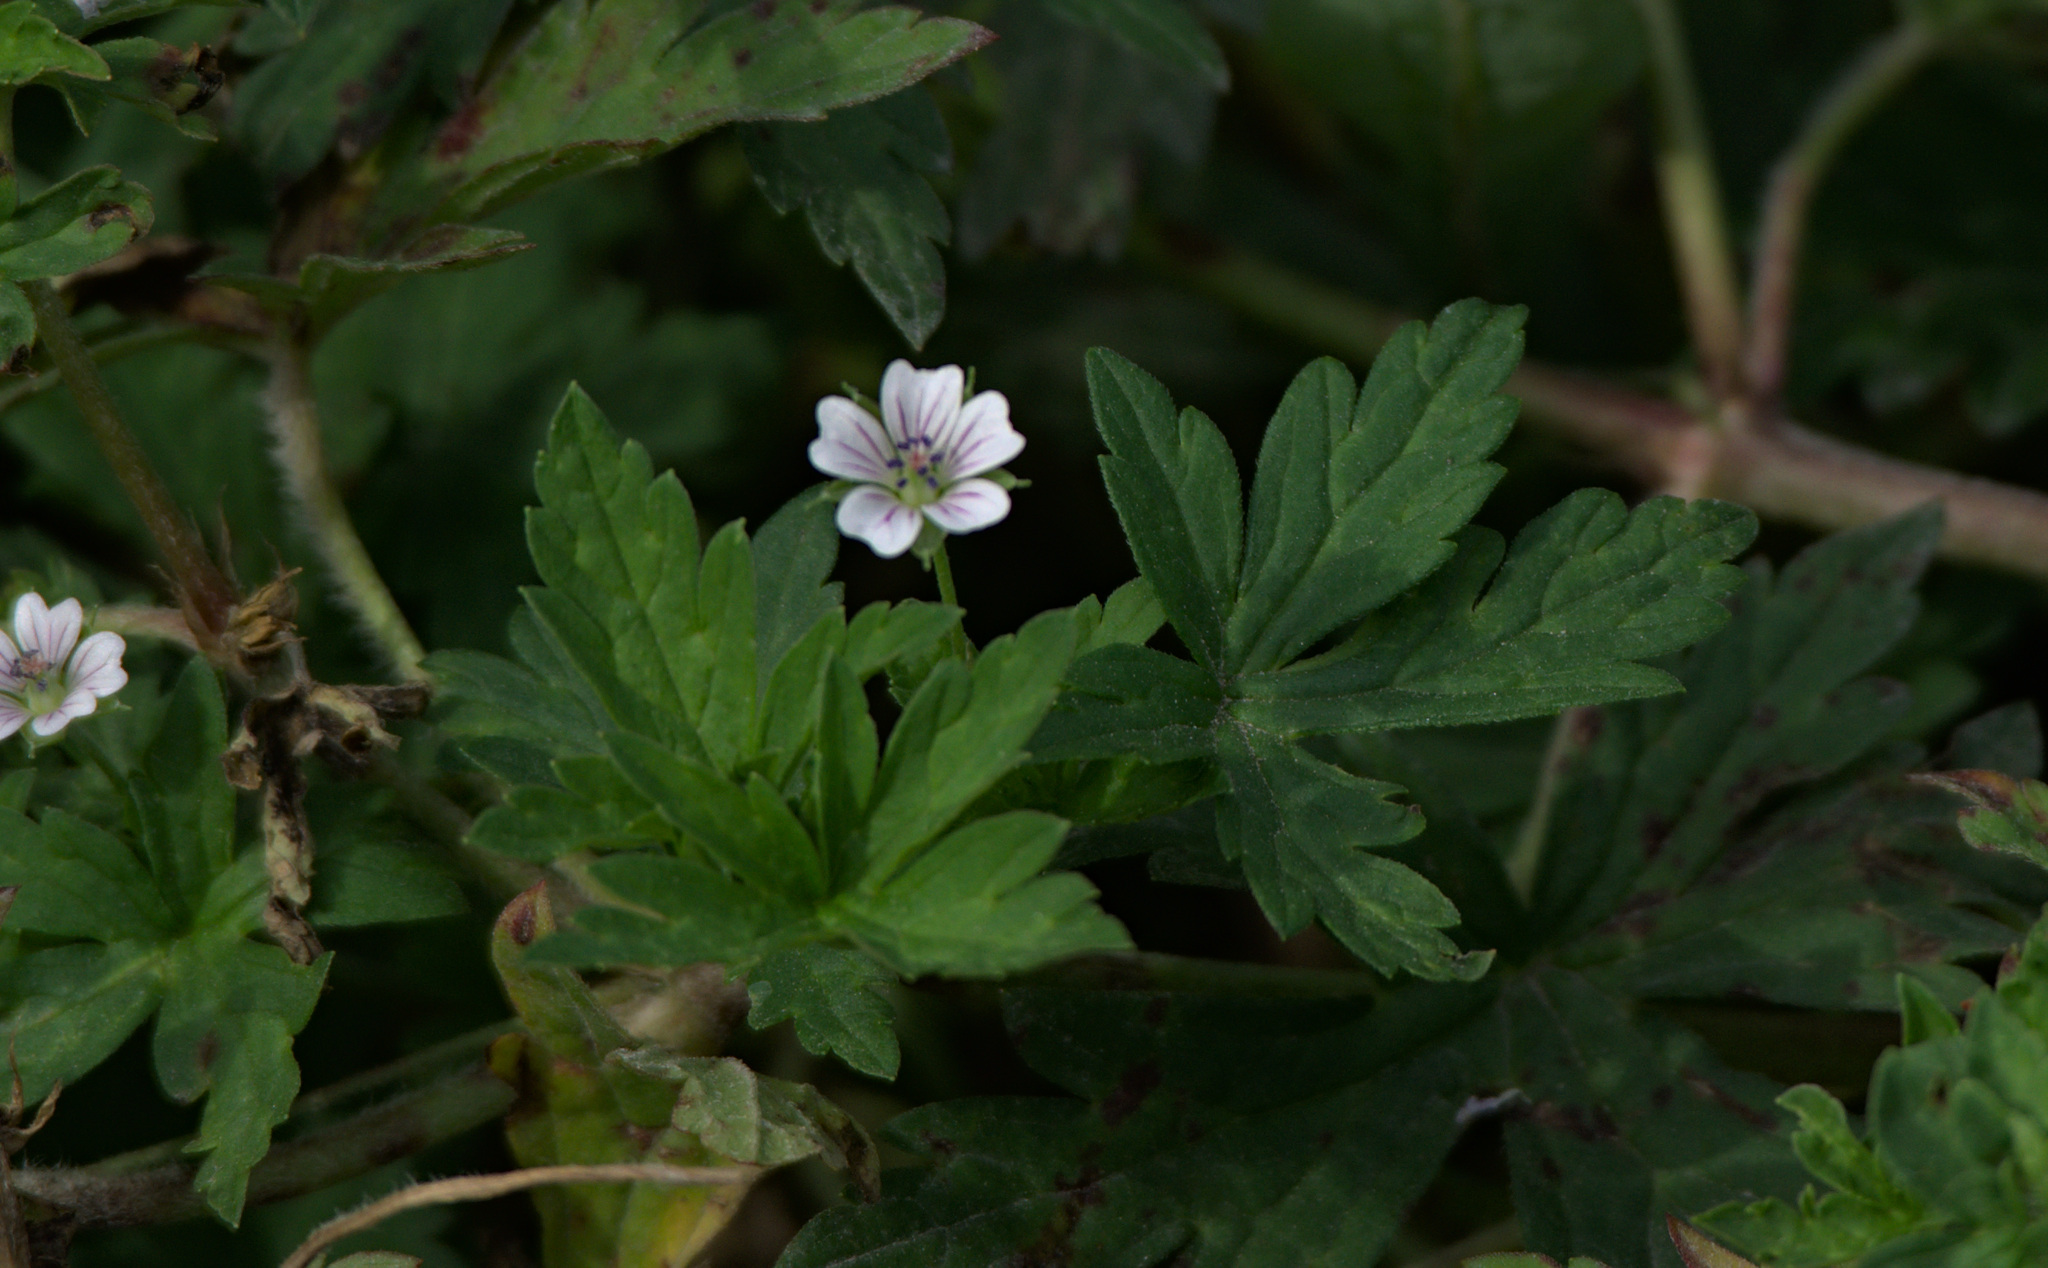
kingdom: Plantae
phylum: Tracheophyta
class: Magnoliopsida
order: Geraniales
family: Geraniaceae
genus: Geranium
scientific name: Geranium sibiricum
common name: Siberian crane's-bill
